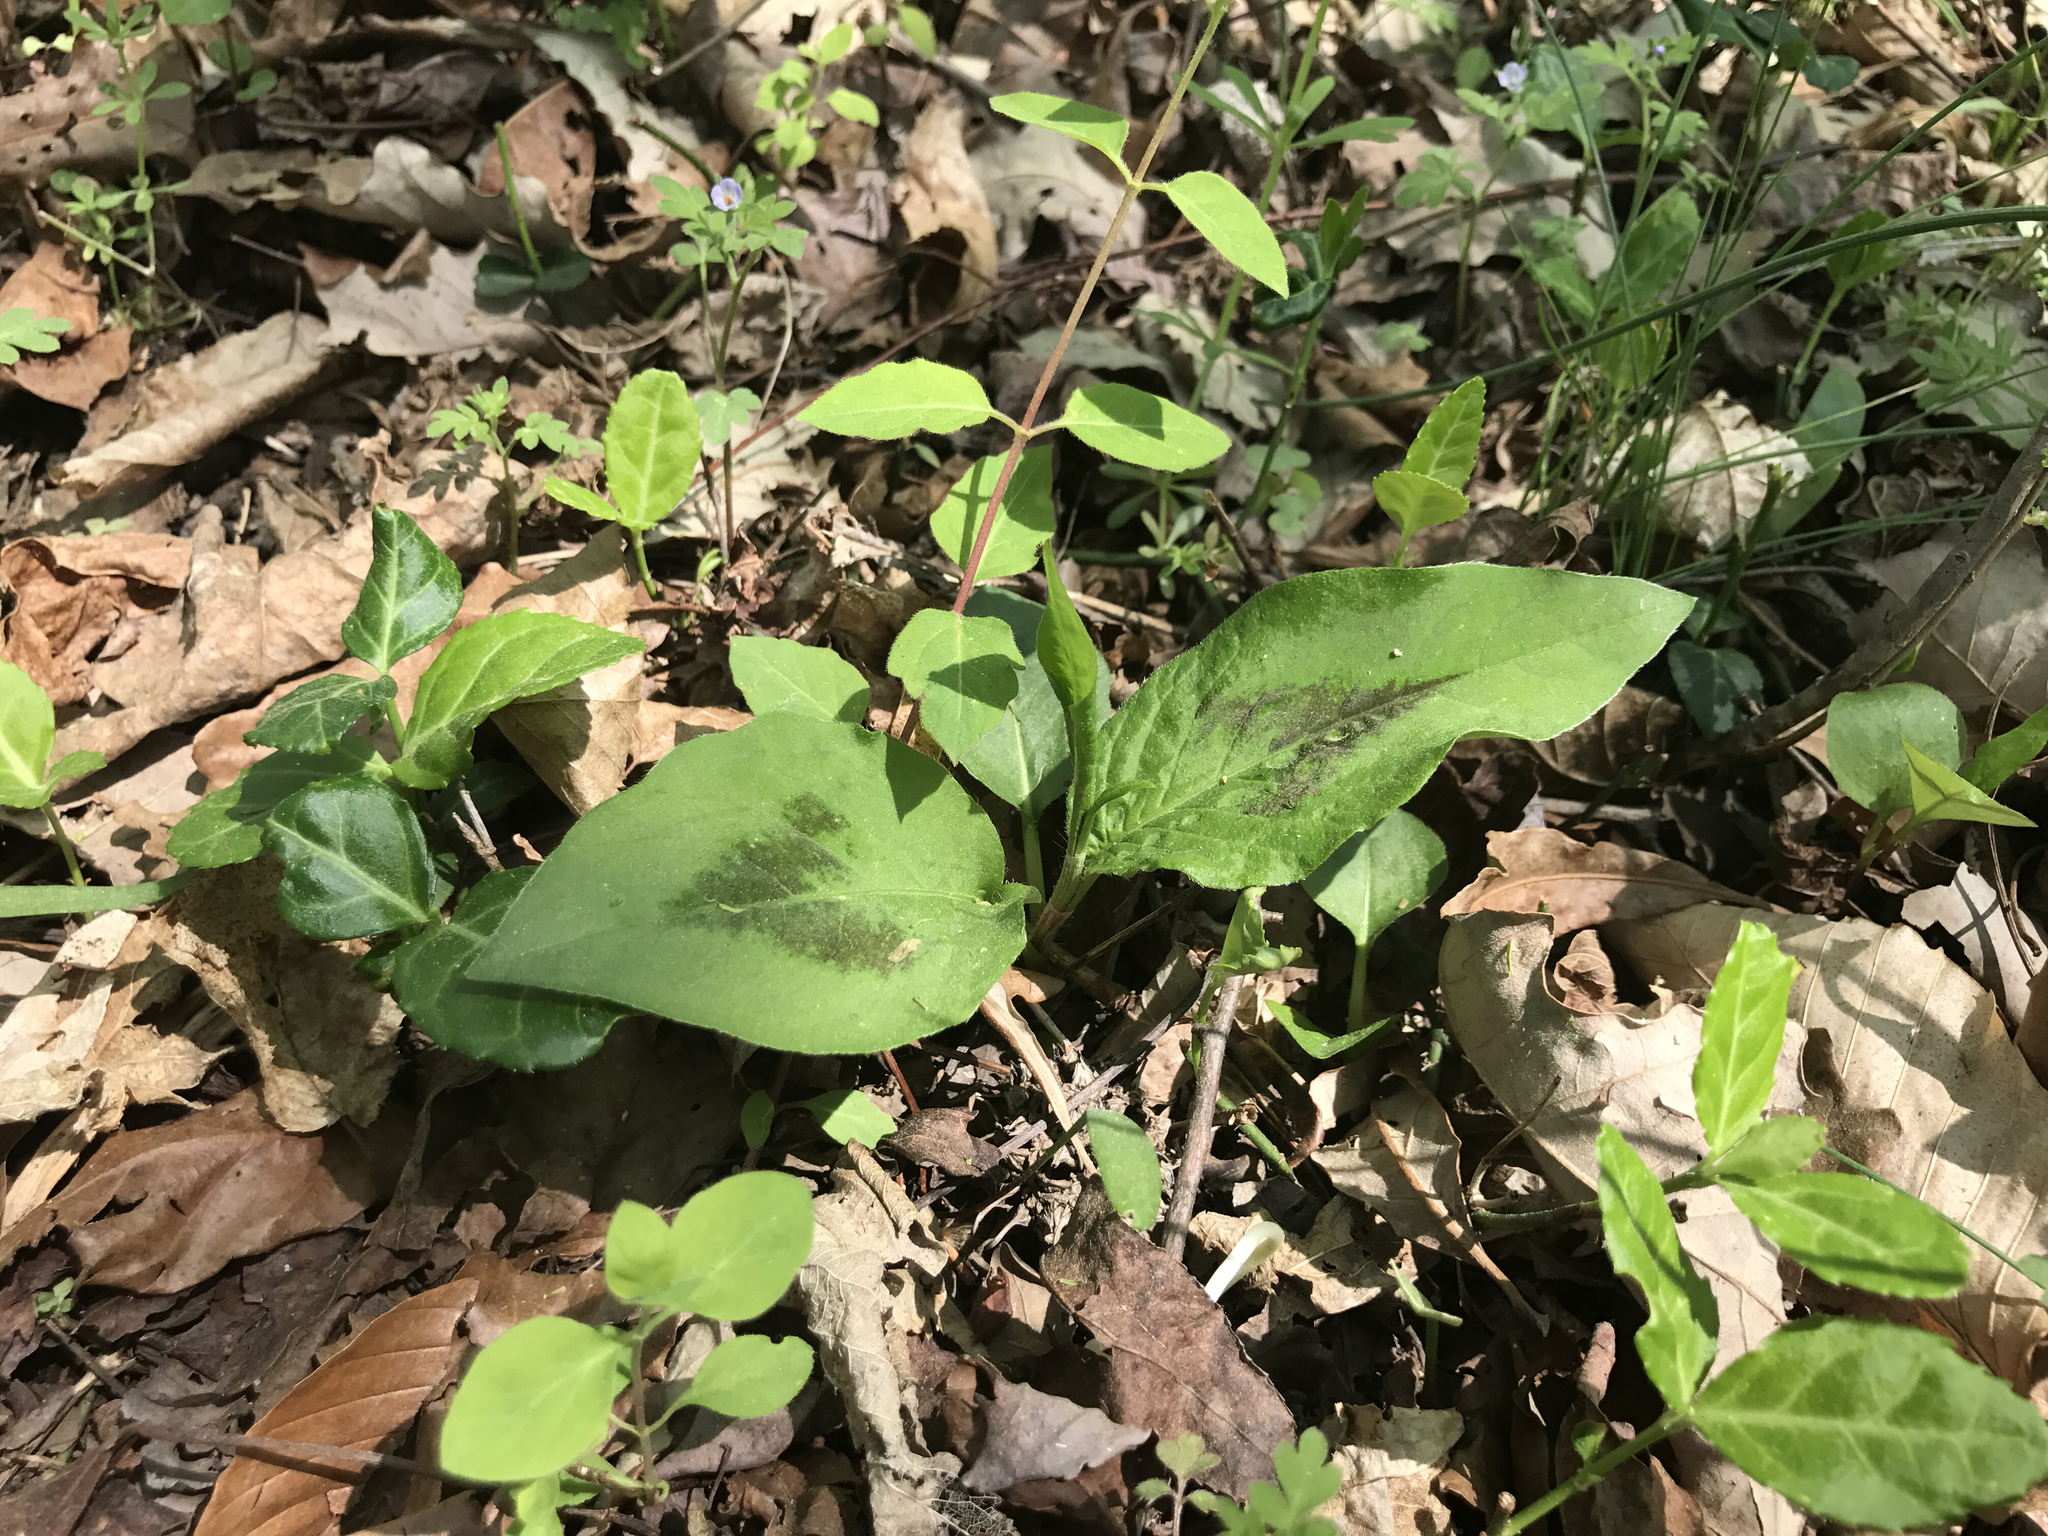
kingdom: Plantae
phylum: Tracheophyta
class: Magnoliopsida
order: Caryophyllales
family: Polygonaceae
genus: Persicaria
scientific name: Persicaria virginiana
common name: Jumpseed
